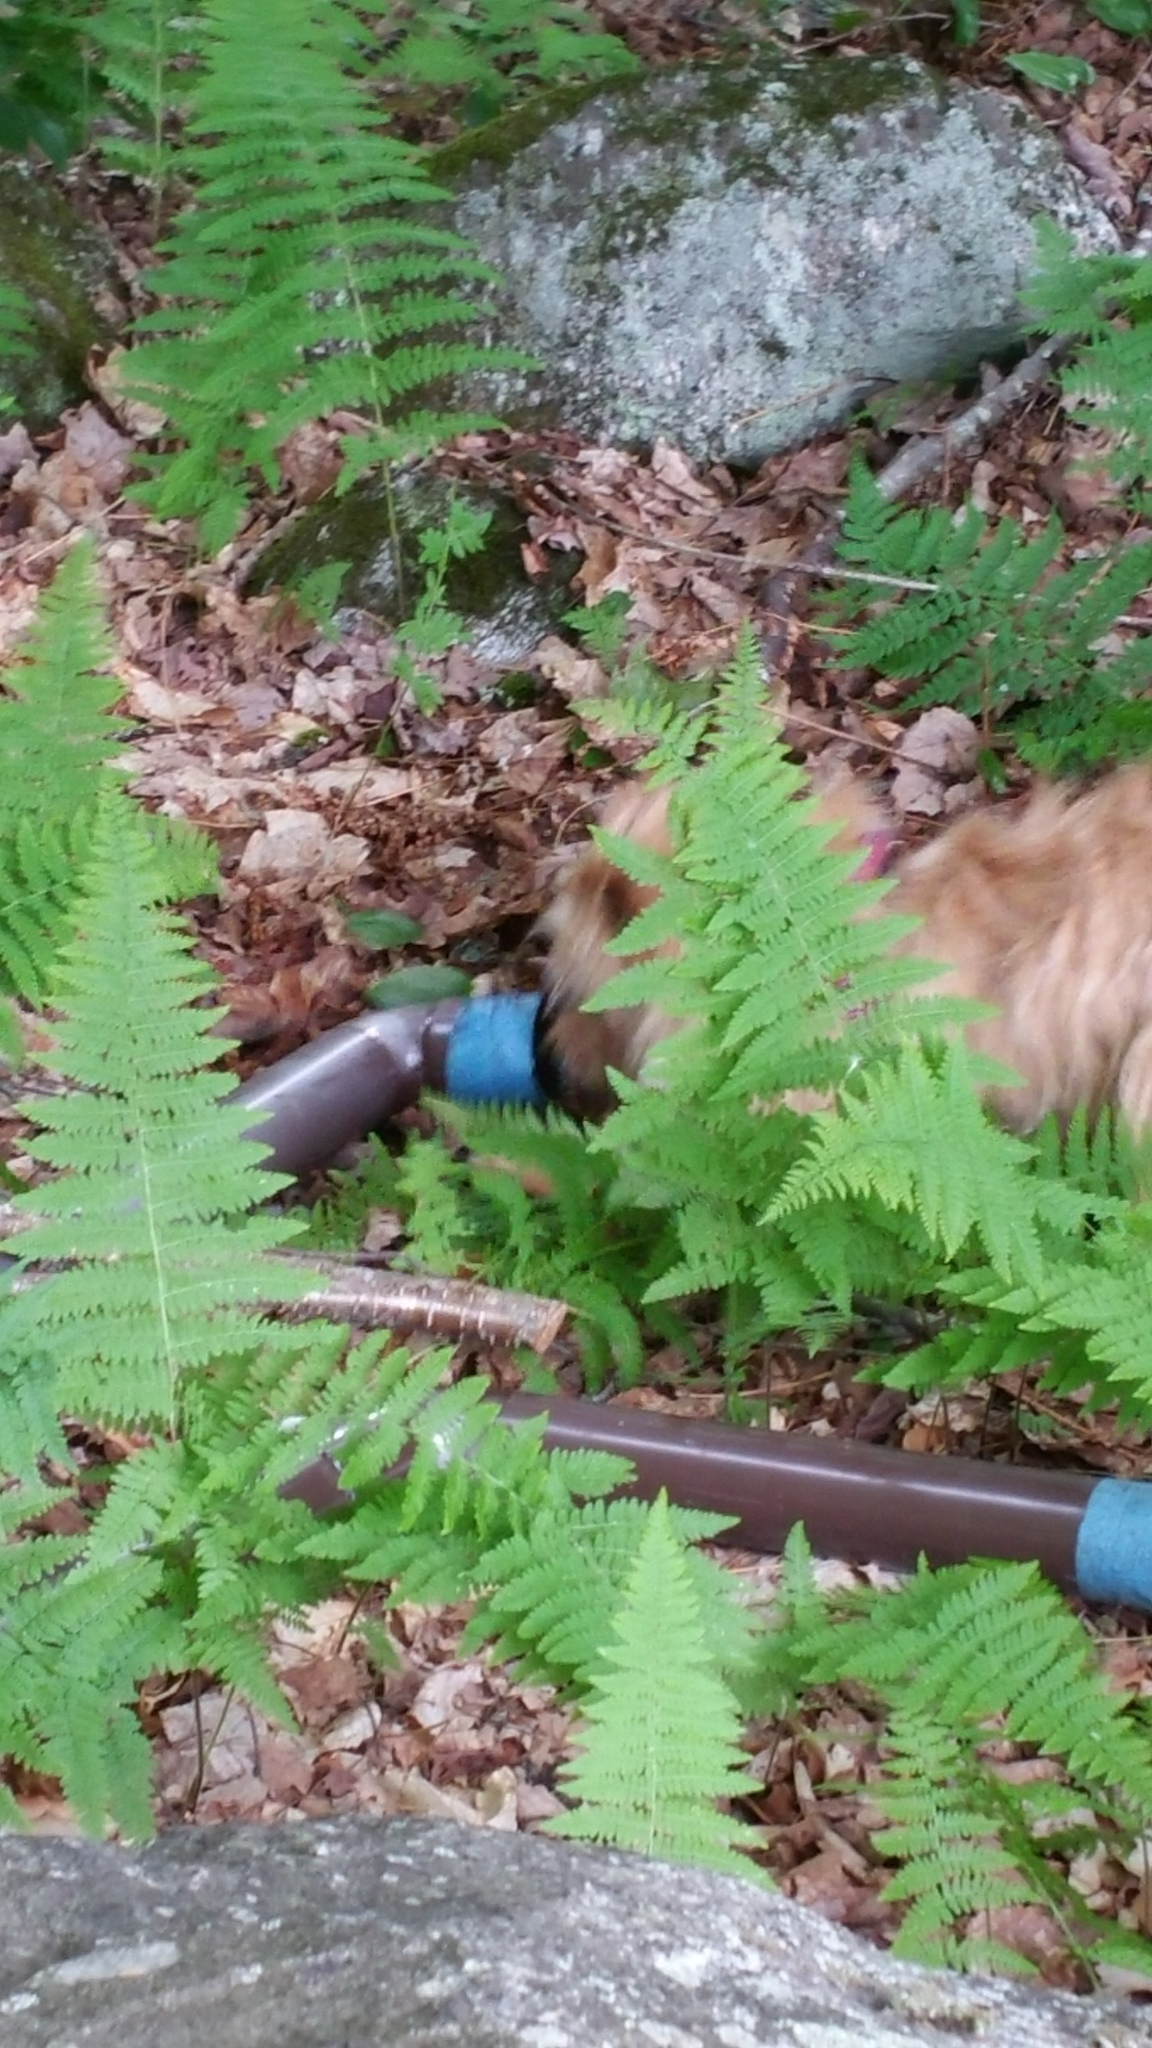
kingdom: Plantae
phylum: Tracheophyta
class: Polypodiopsida
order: Polypodiales
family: Dennstaedtiaceae
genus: Sitobolium
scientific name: Sitobolium punctilobum
